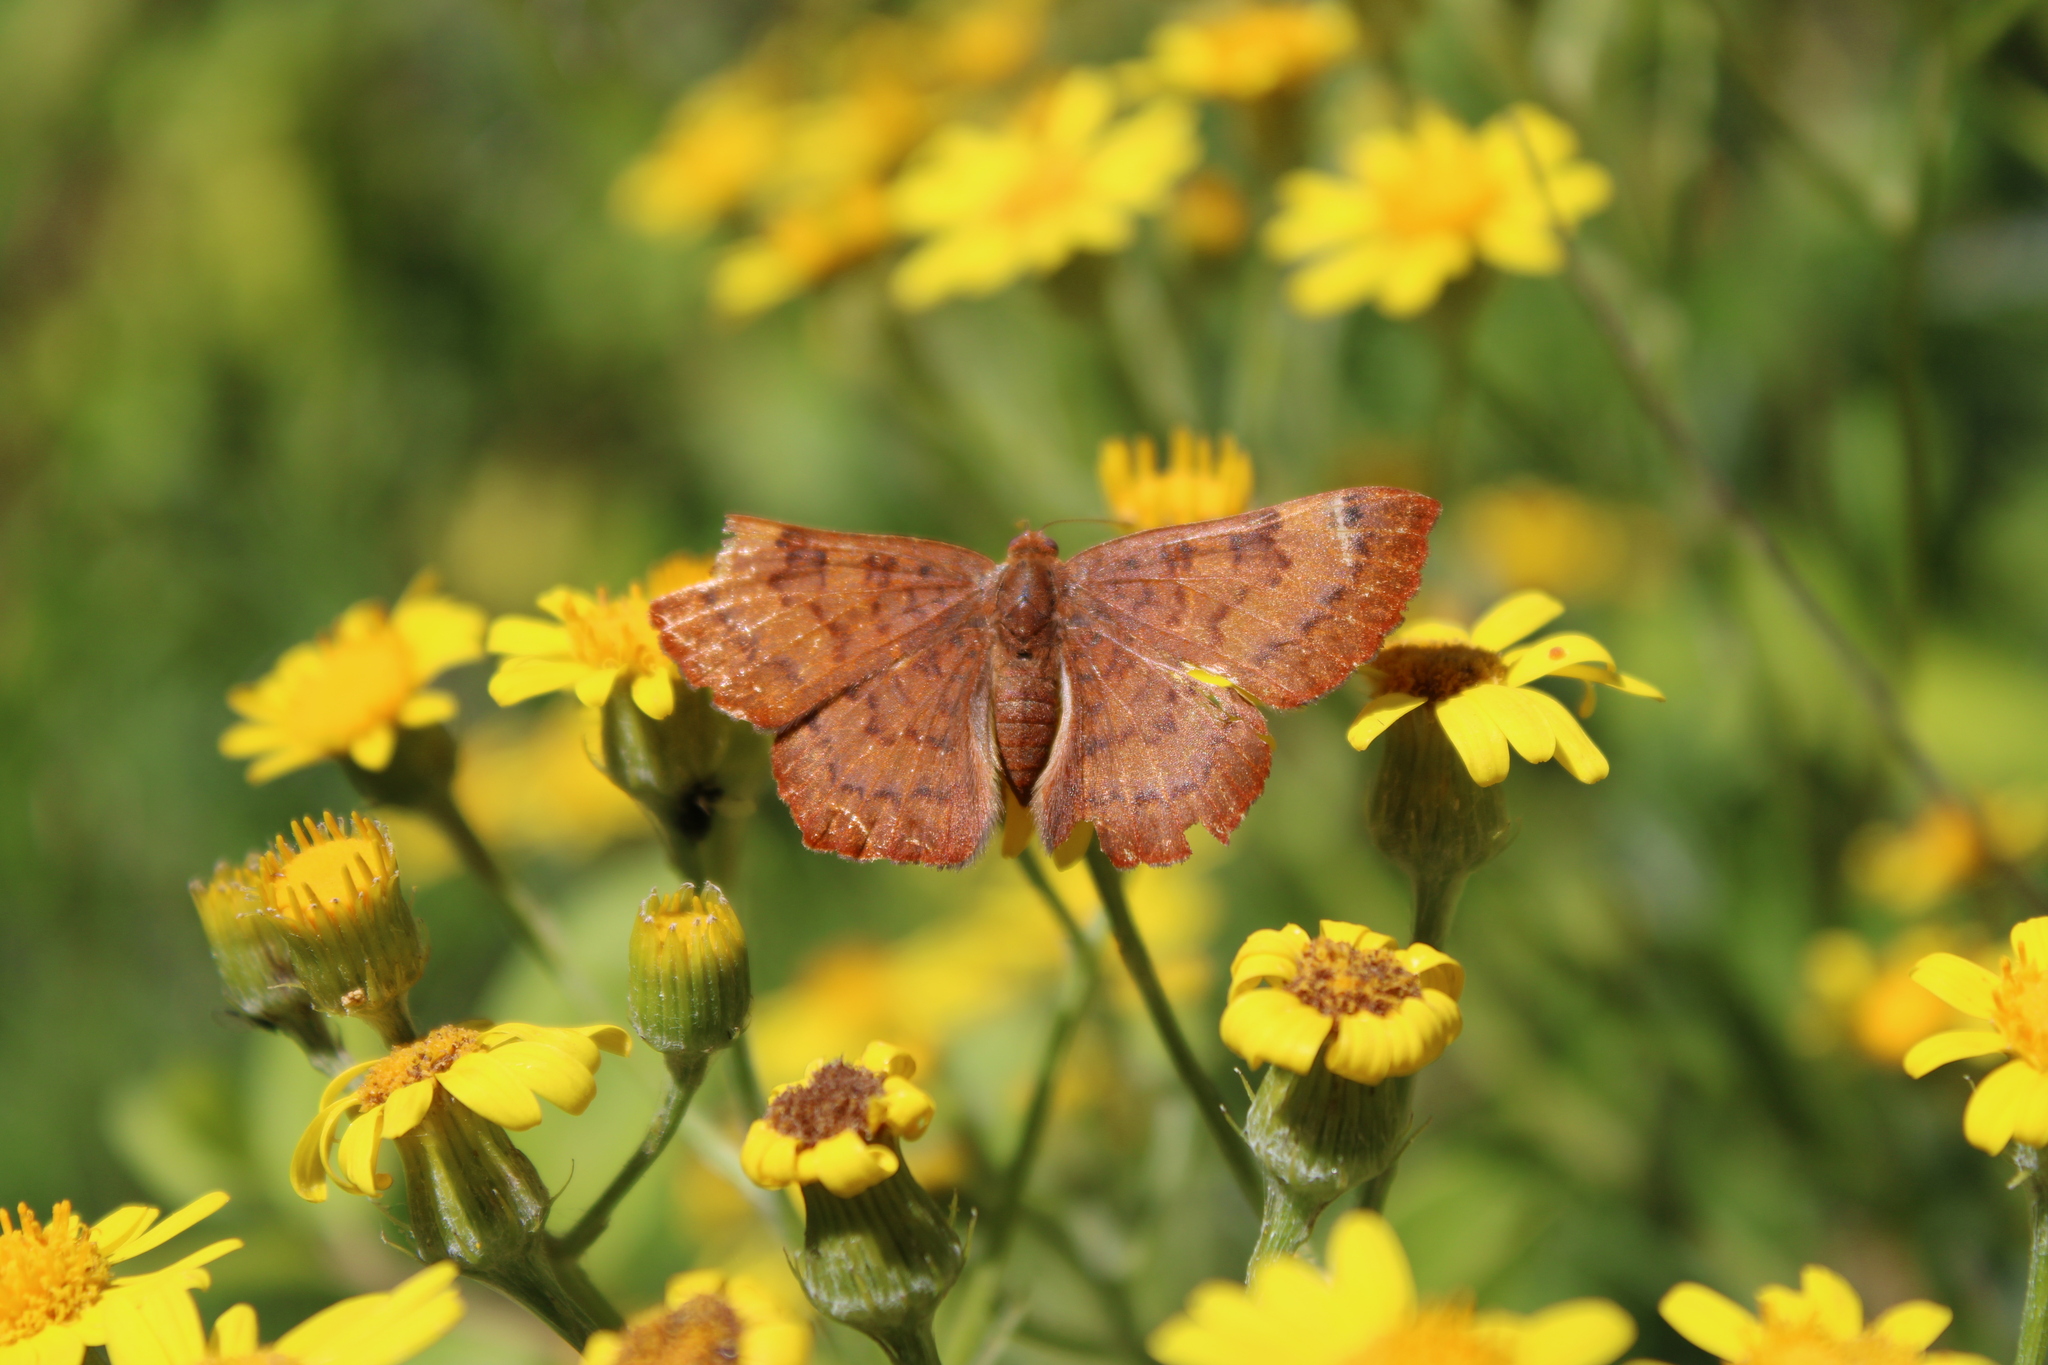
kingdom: Animalia
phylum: Arthropoda
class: Insecta
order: Lepidoptera
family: Lycaenidae
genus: Emesis
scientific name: Emesis russula
